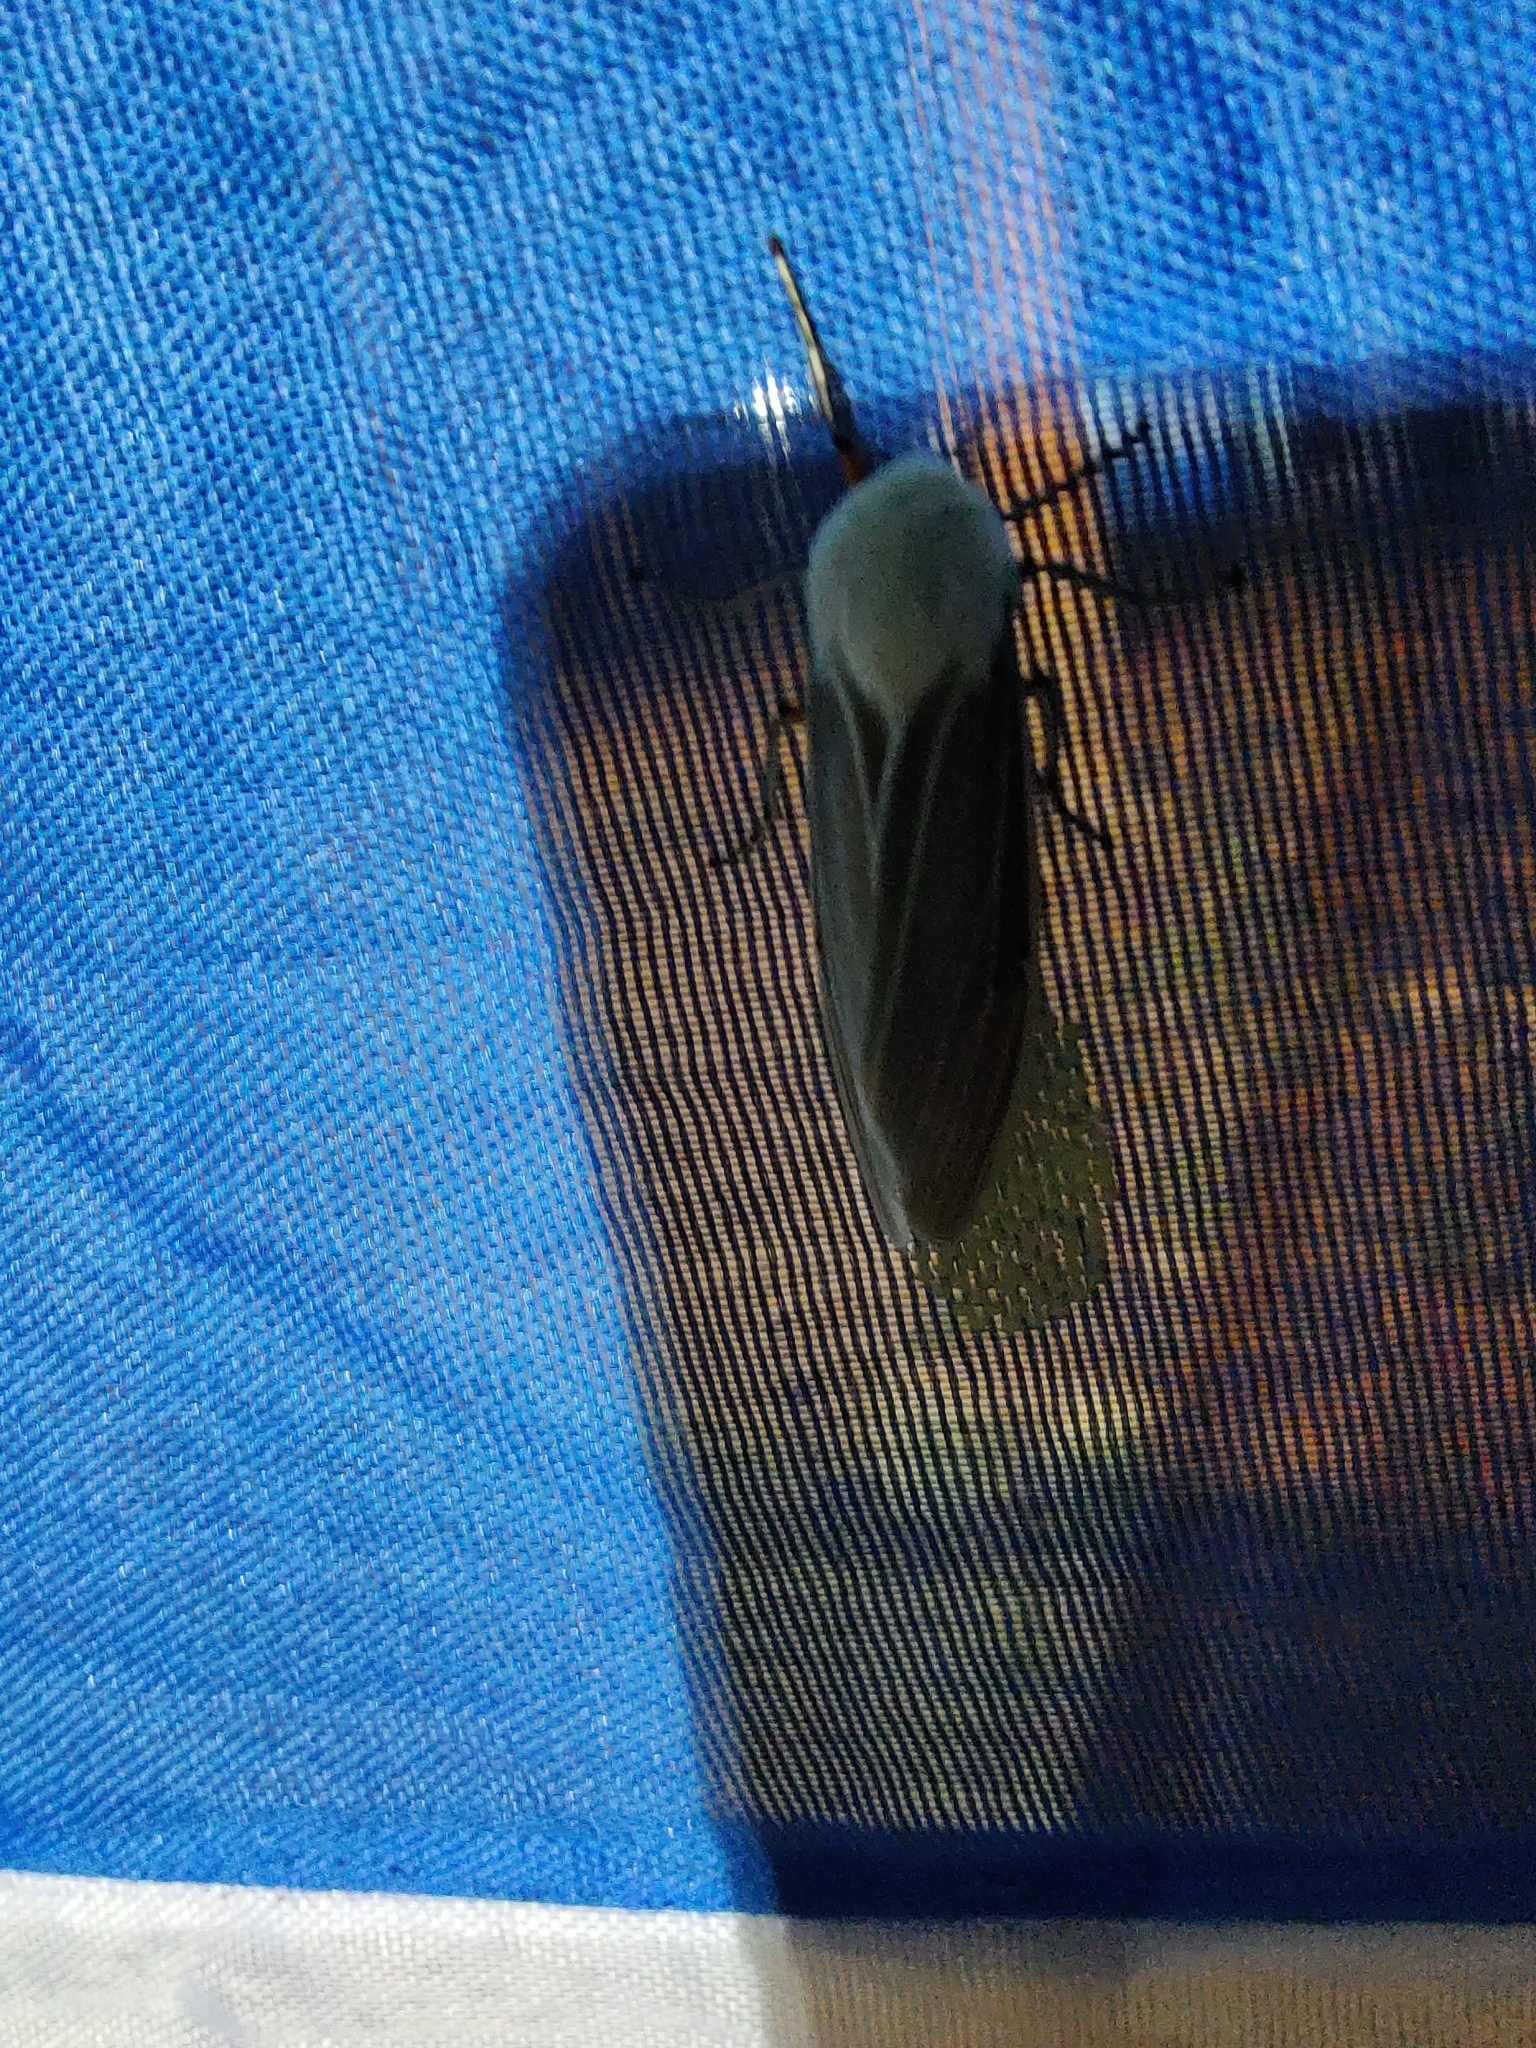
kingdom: Animalia
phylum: Arthropoda
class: Insecta
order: Lepidoptera
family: Erebidae
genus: Creatonotos
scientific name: Creatonotos transiens
